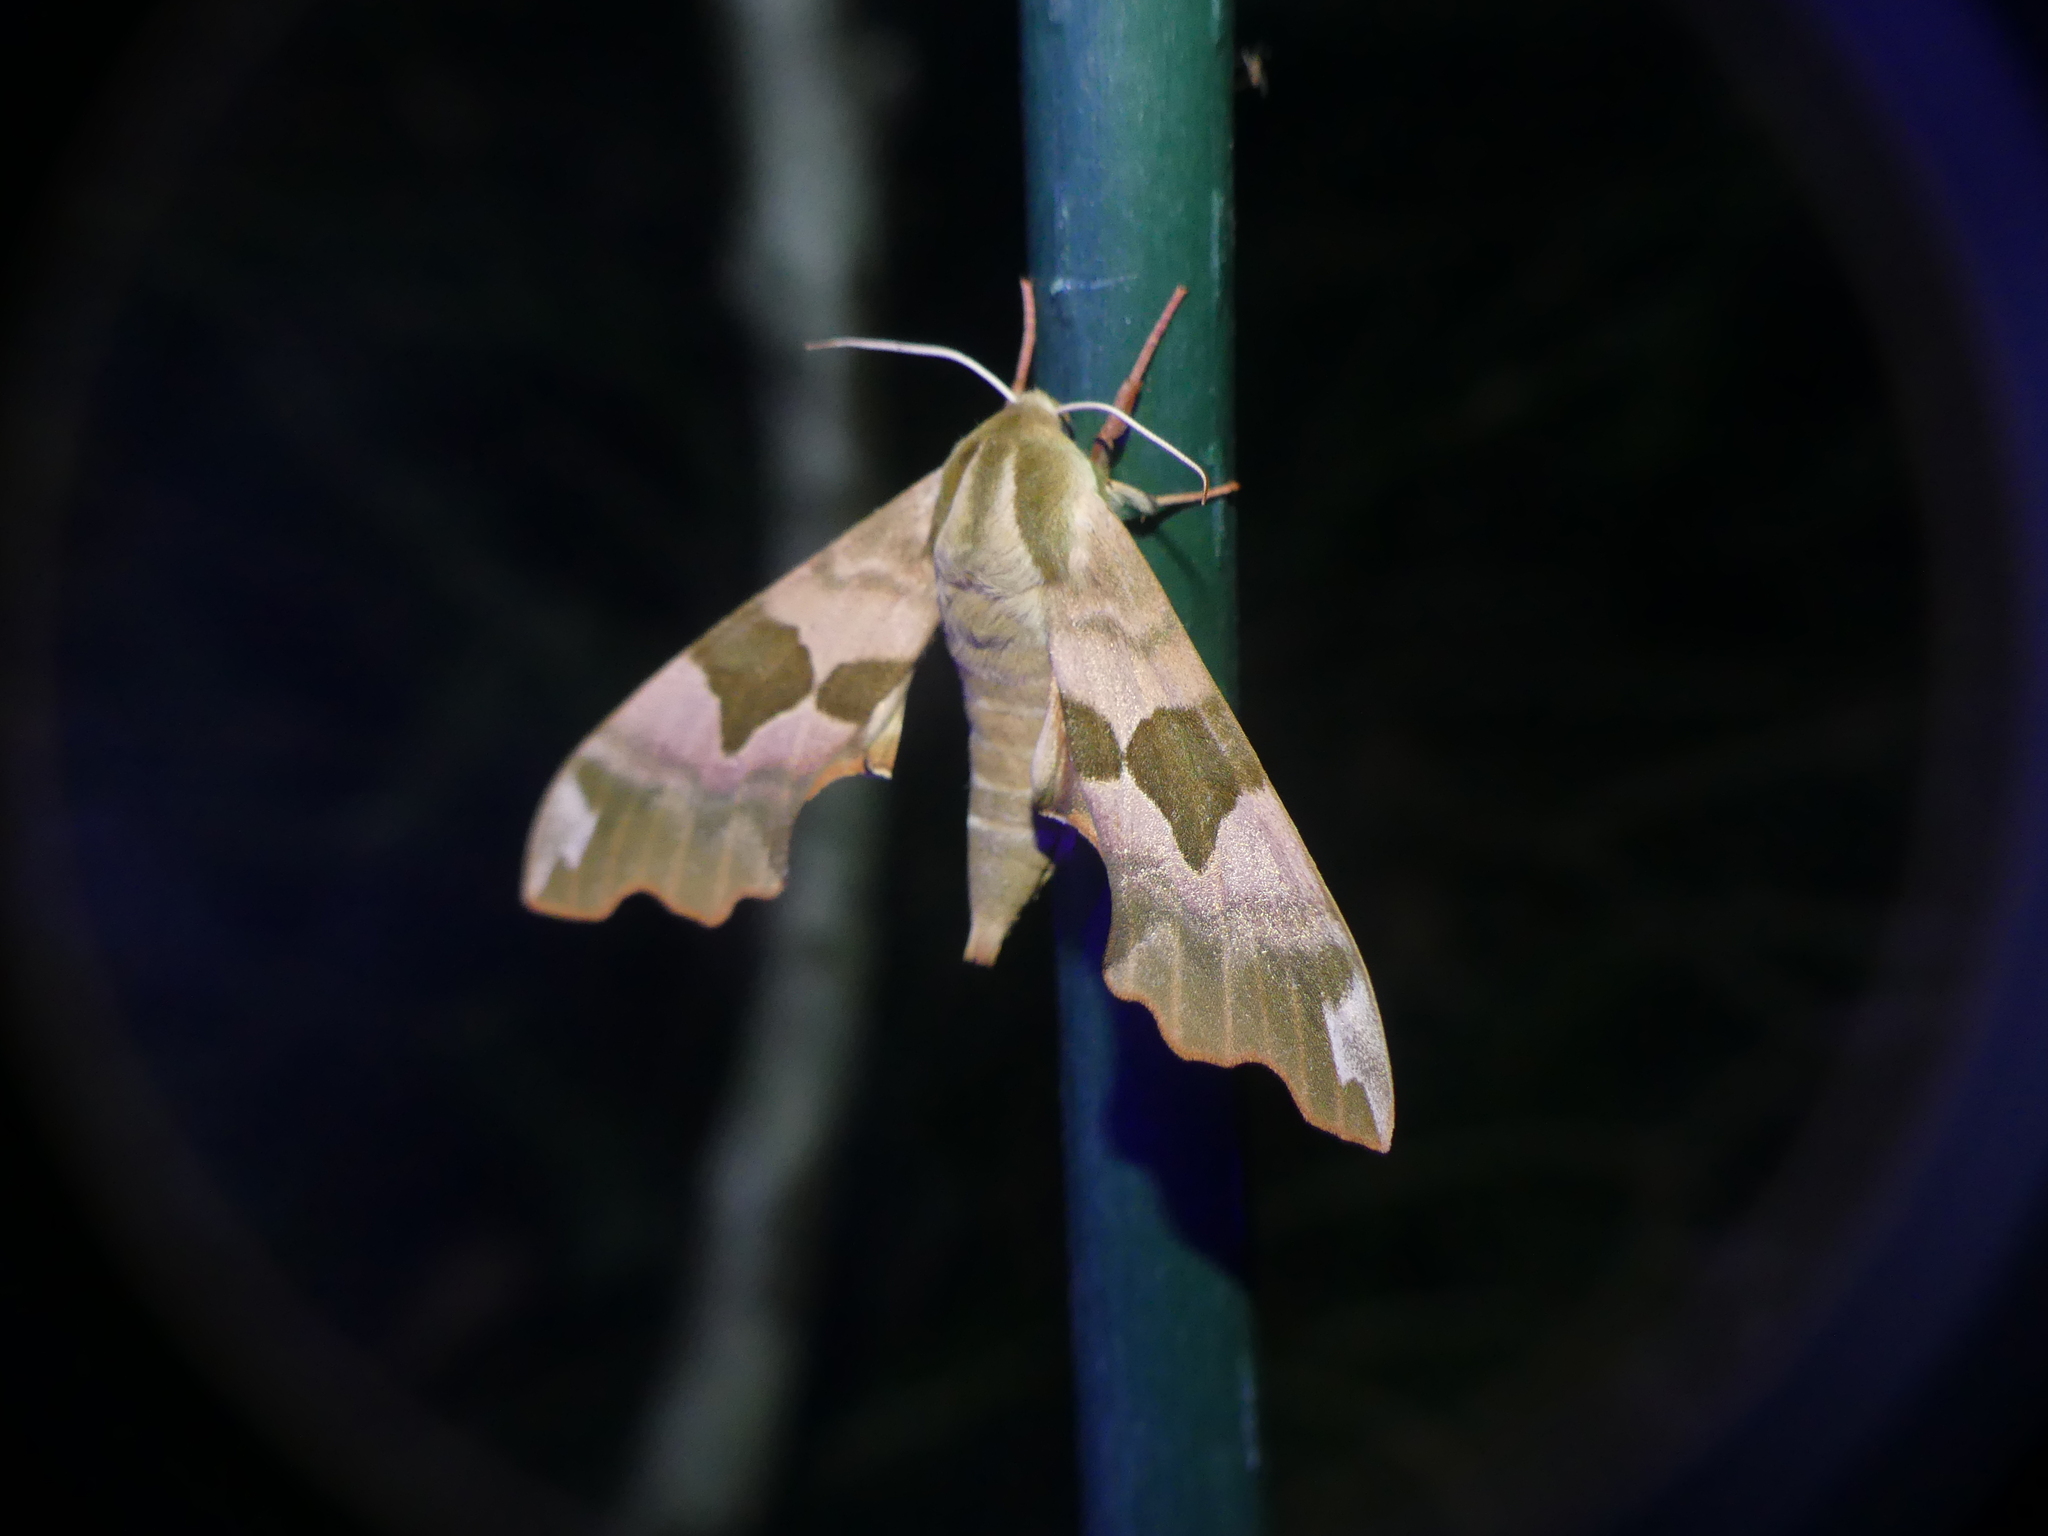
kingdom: Animalia
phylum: Arthropoda
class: Insecta
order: Lepidoptera
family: Sphingidae
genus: Mimas
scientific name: Mimas tiliae
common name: Lime hawk-moth
